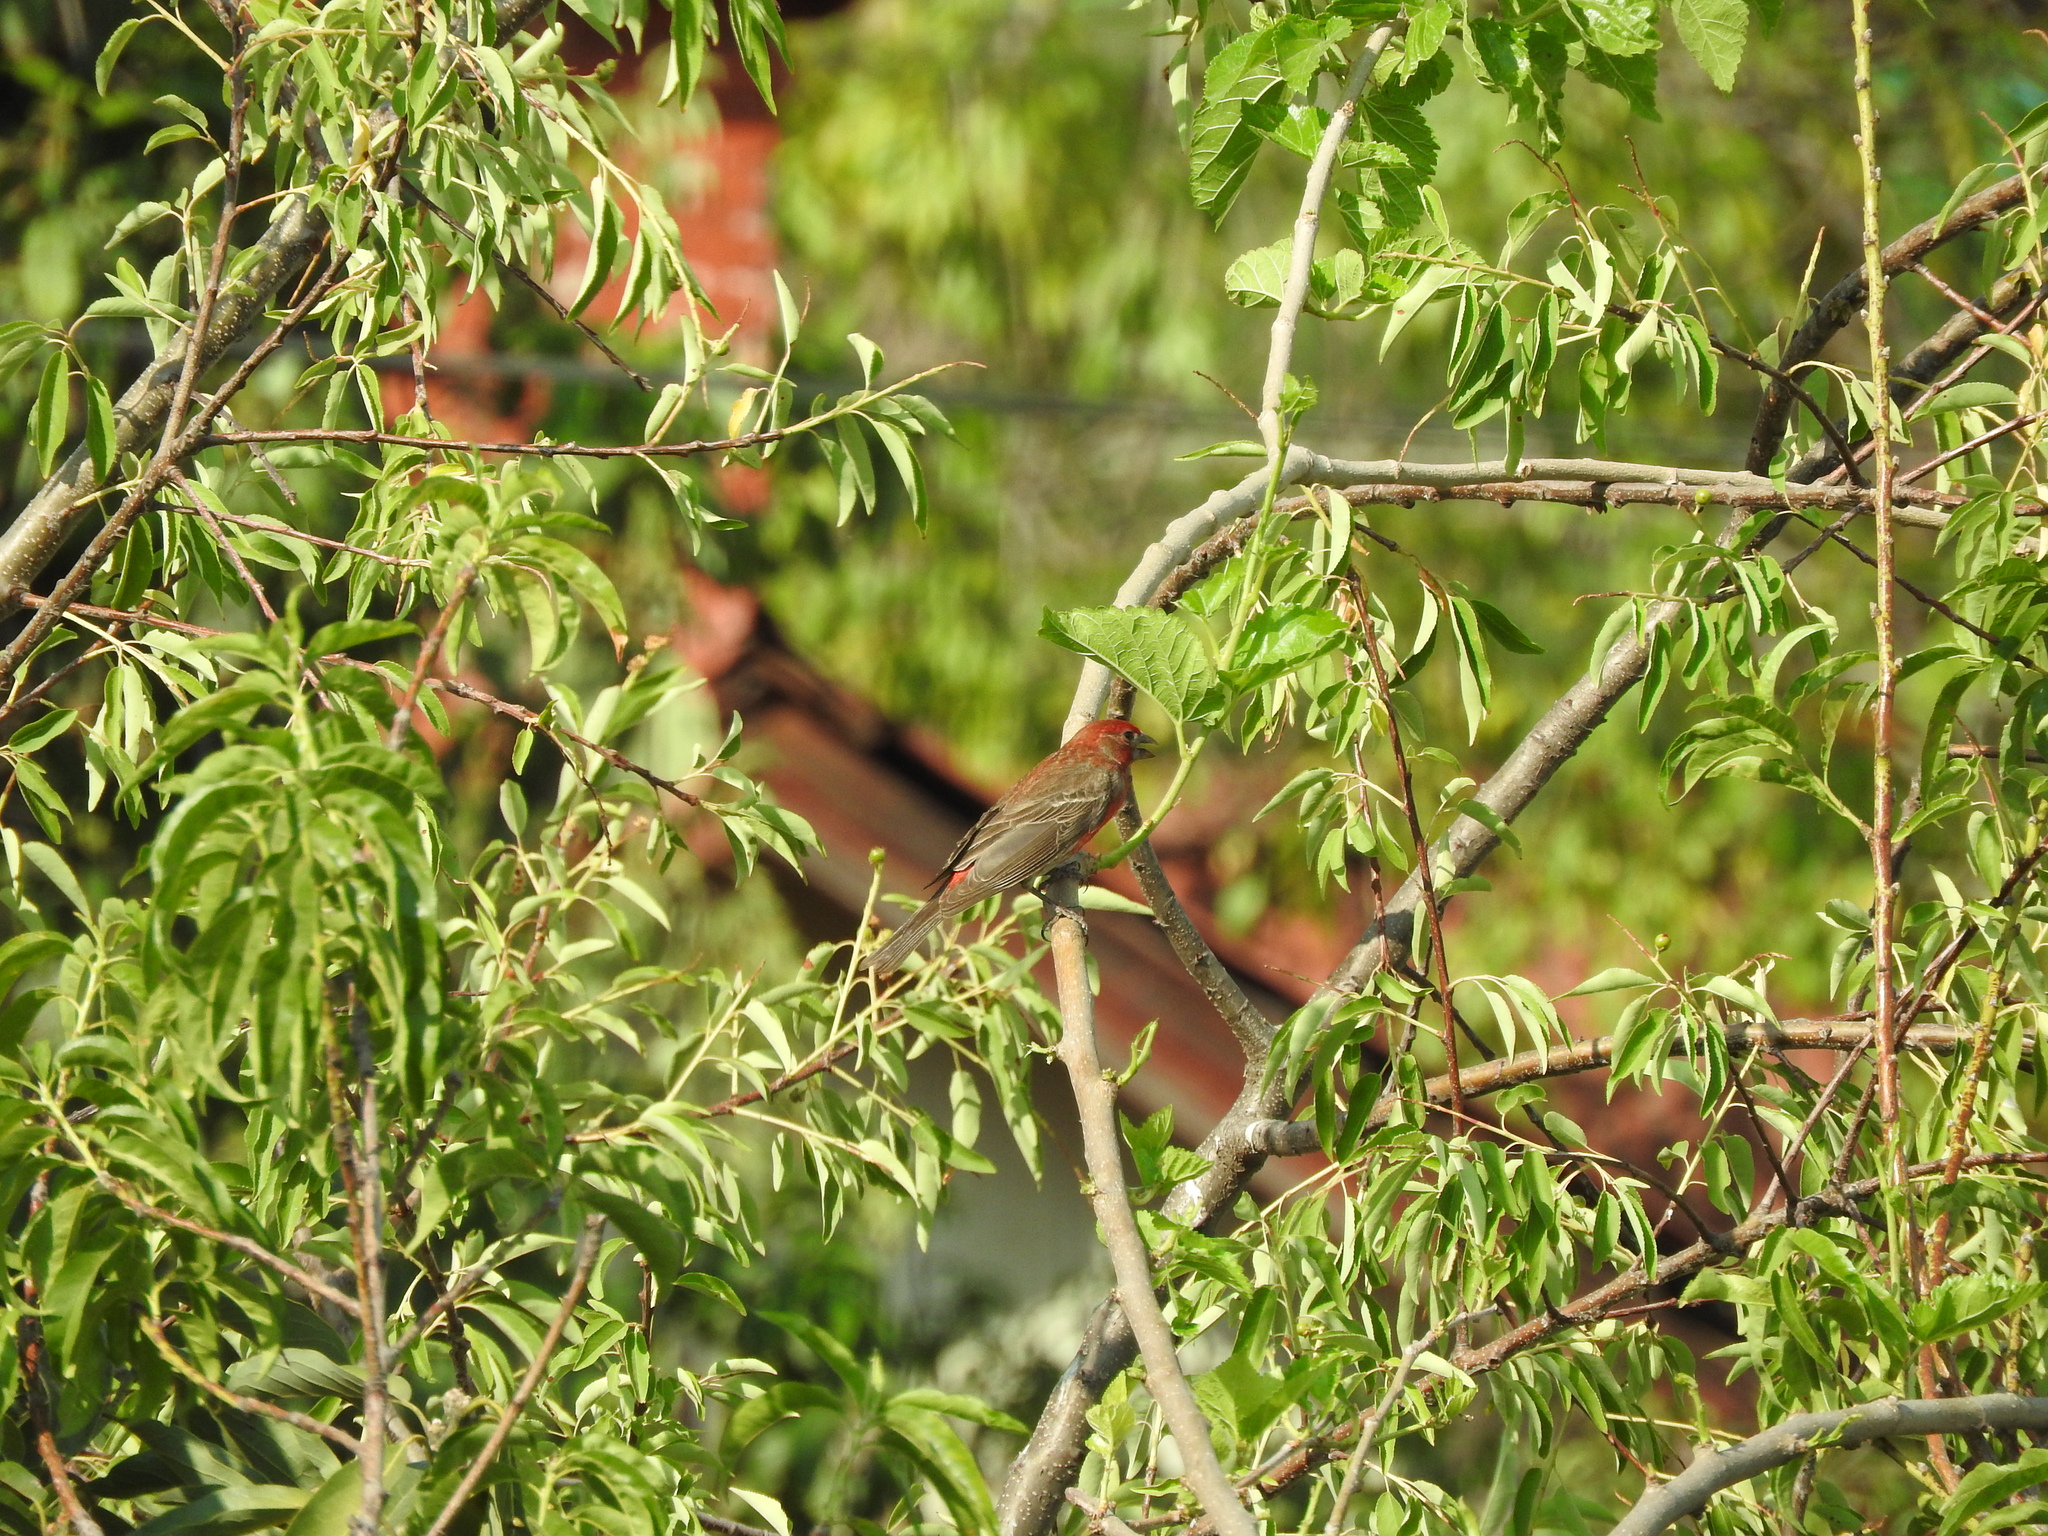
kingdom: Animalia
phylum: Chordata
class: Aves
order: Passeriformes
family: Fringillidae
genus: Haemorhous
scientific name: Haemorhous mexicanus
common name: House finch
